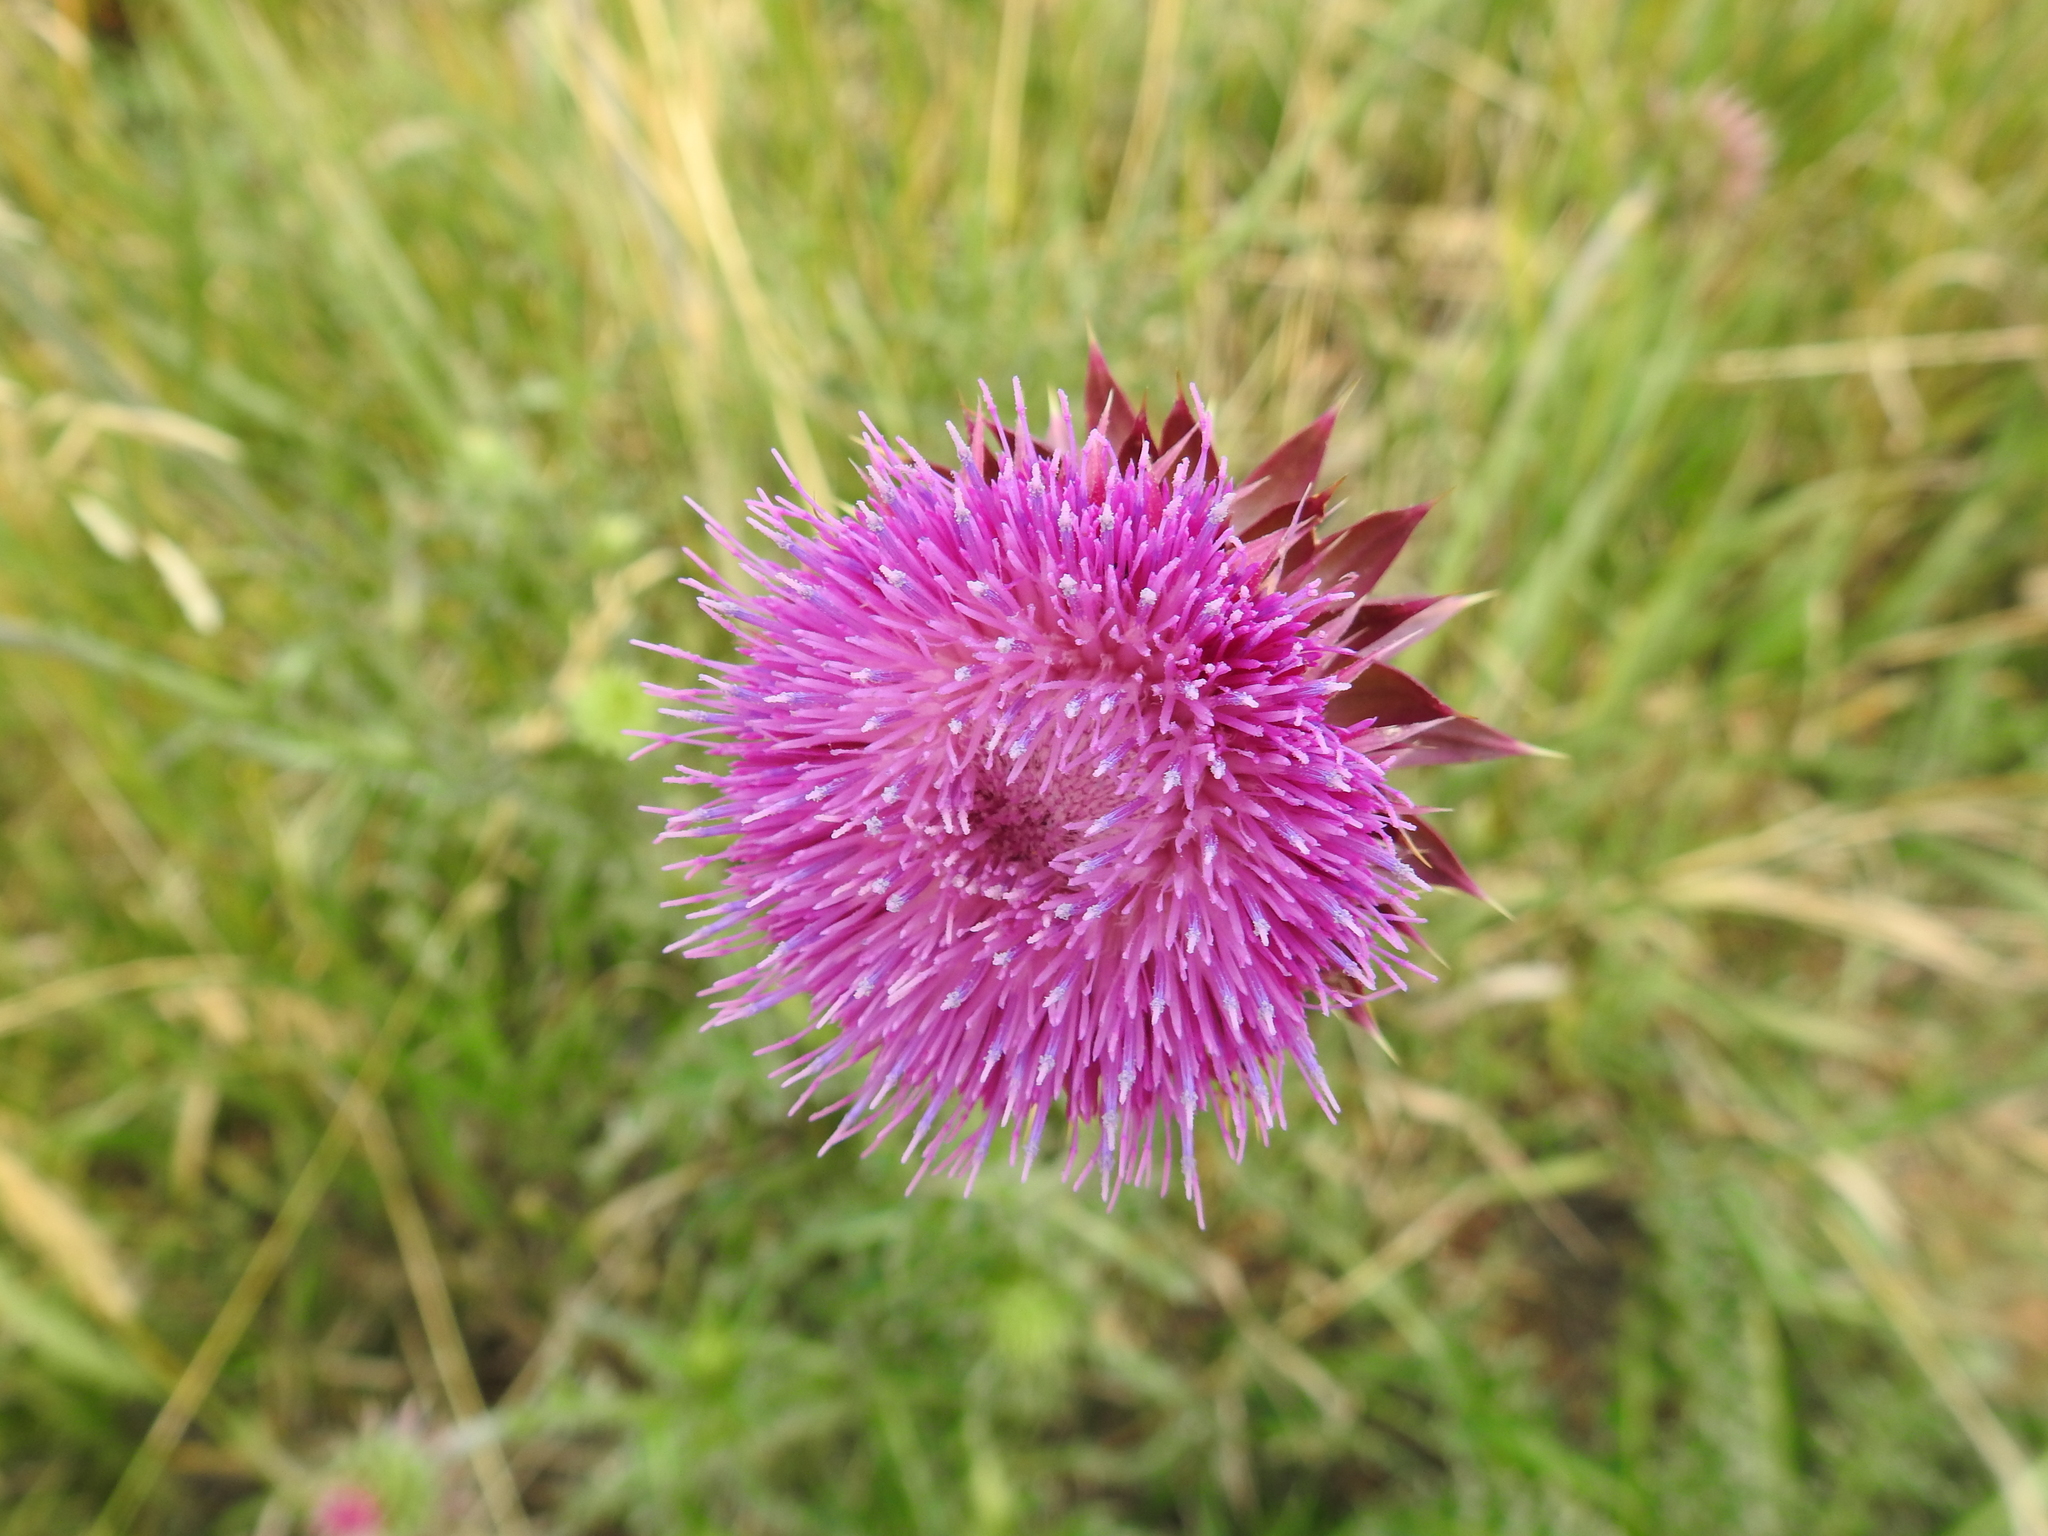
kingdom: Plantae
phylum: Tracheophyta
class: Magnoliopsida
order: Asterales
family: Asteraceae
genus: Carduus
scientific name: Carduus nutans
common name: Musk thistle
